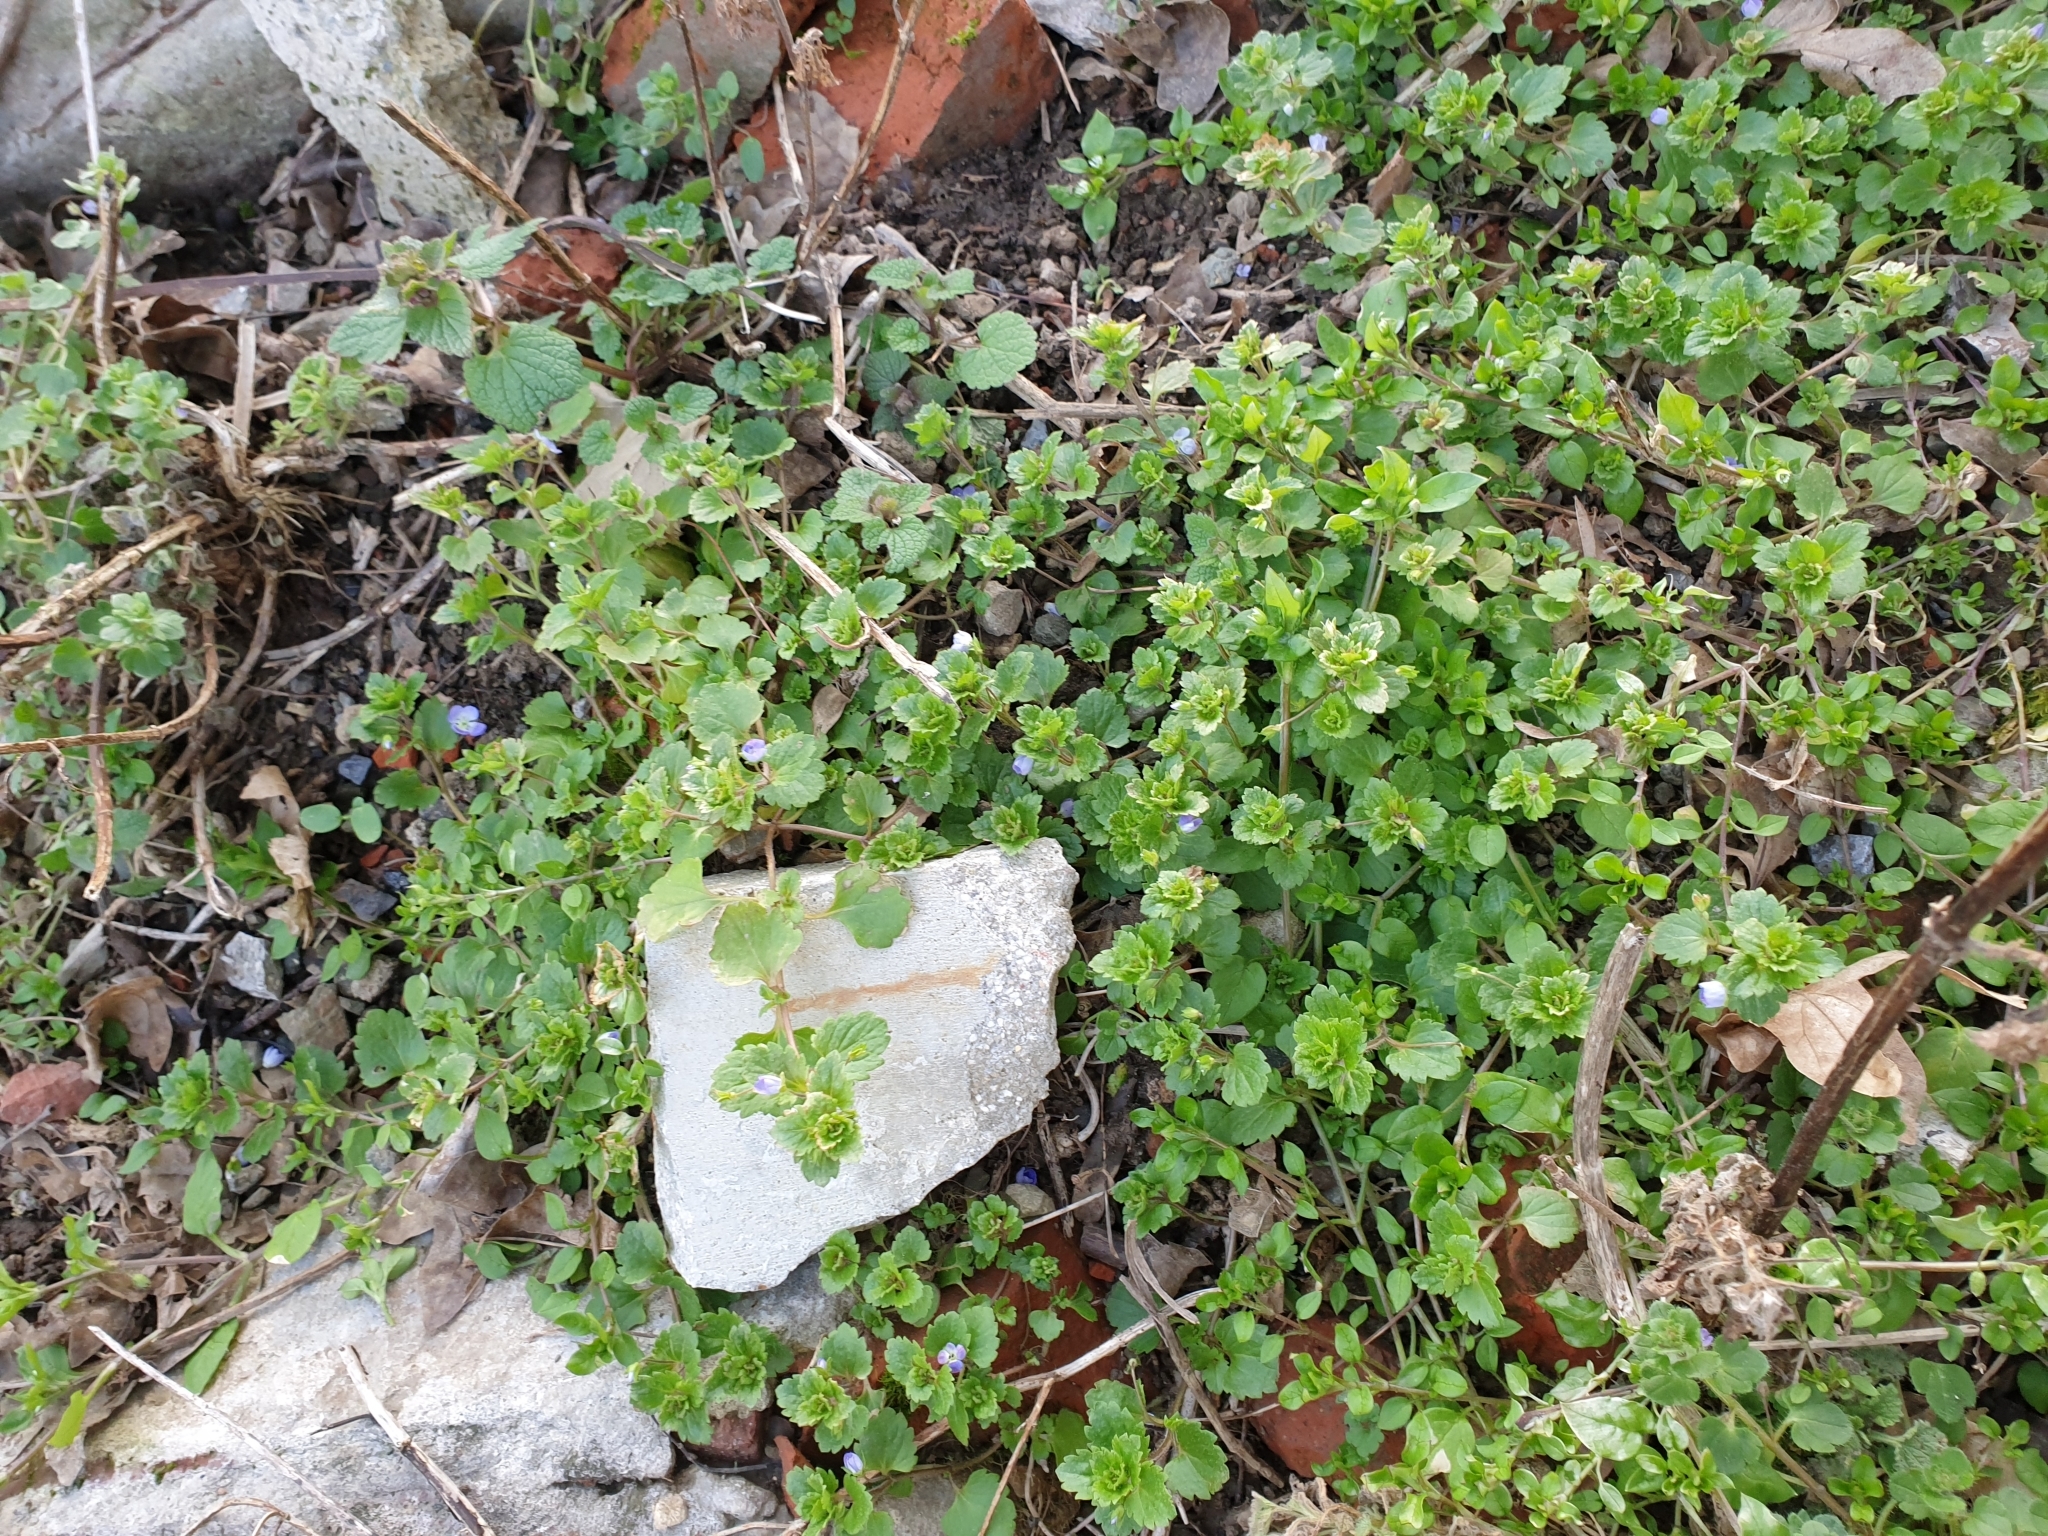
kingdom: Plantae
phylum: Tracheophyta
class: Magnoliopsida
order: Lamiales
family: Plantaginaceae
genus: Veronica
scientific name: Veronica persica
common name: Common field-speedwell
